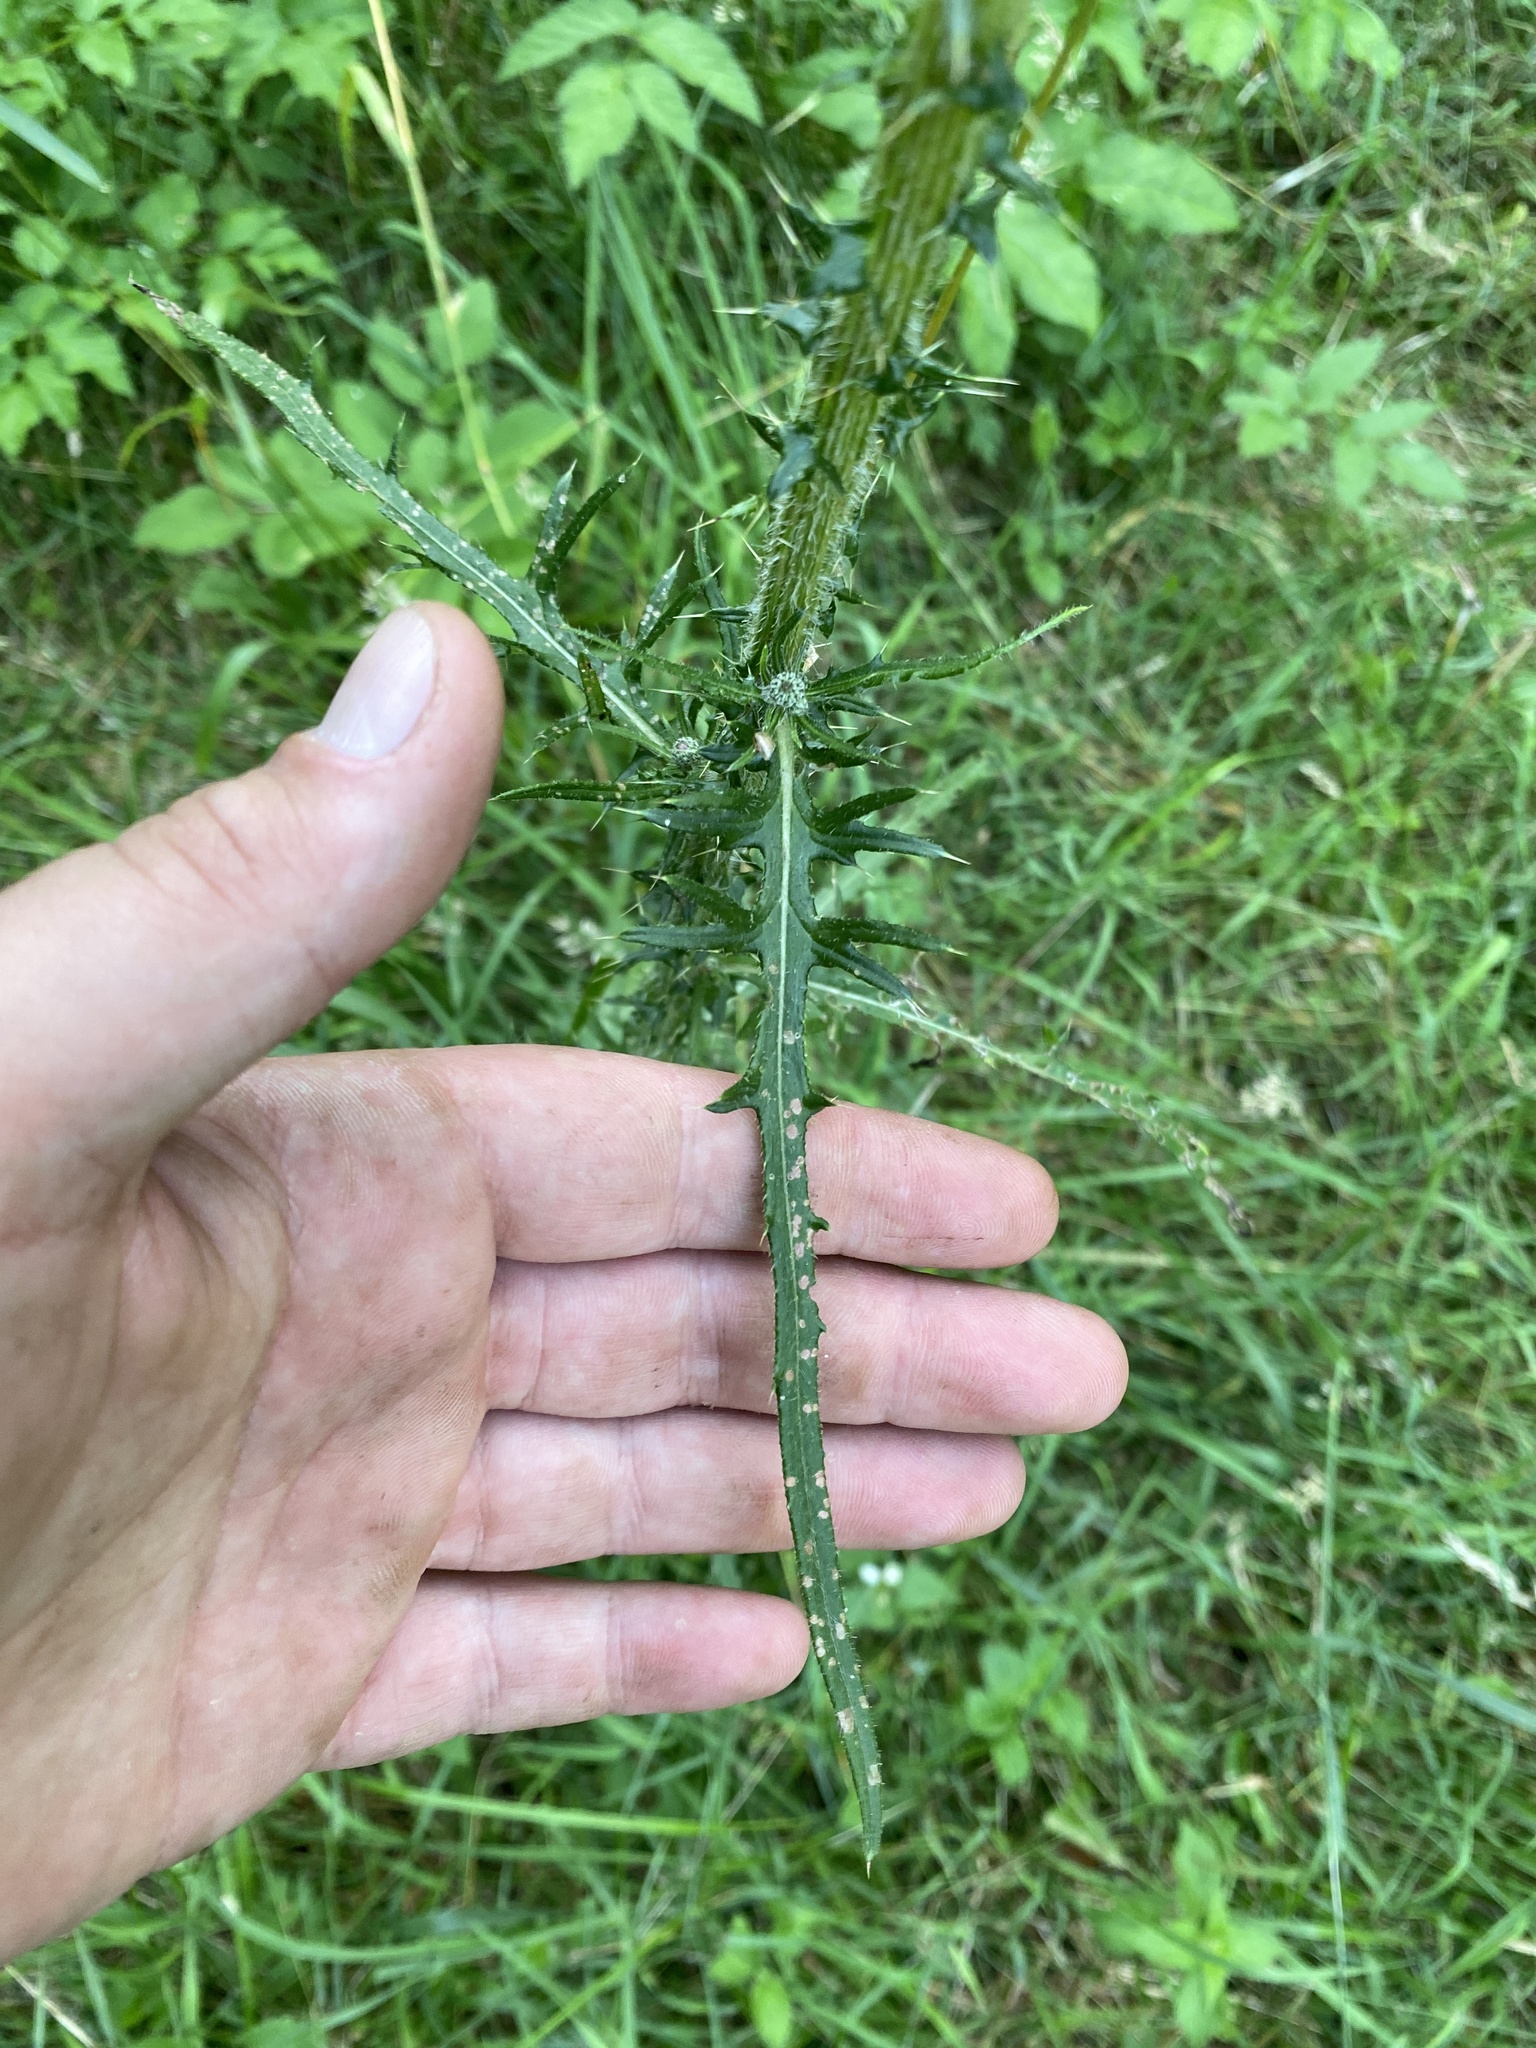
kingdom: Plantae
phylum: Tracheophyta
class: Magnoliopsida
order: Asterales
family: Asteraceae
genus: Cirsium
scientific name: Cirsium palustre
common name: Marsh thistle
